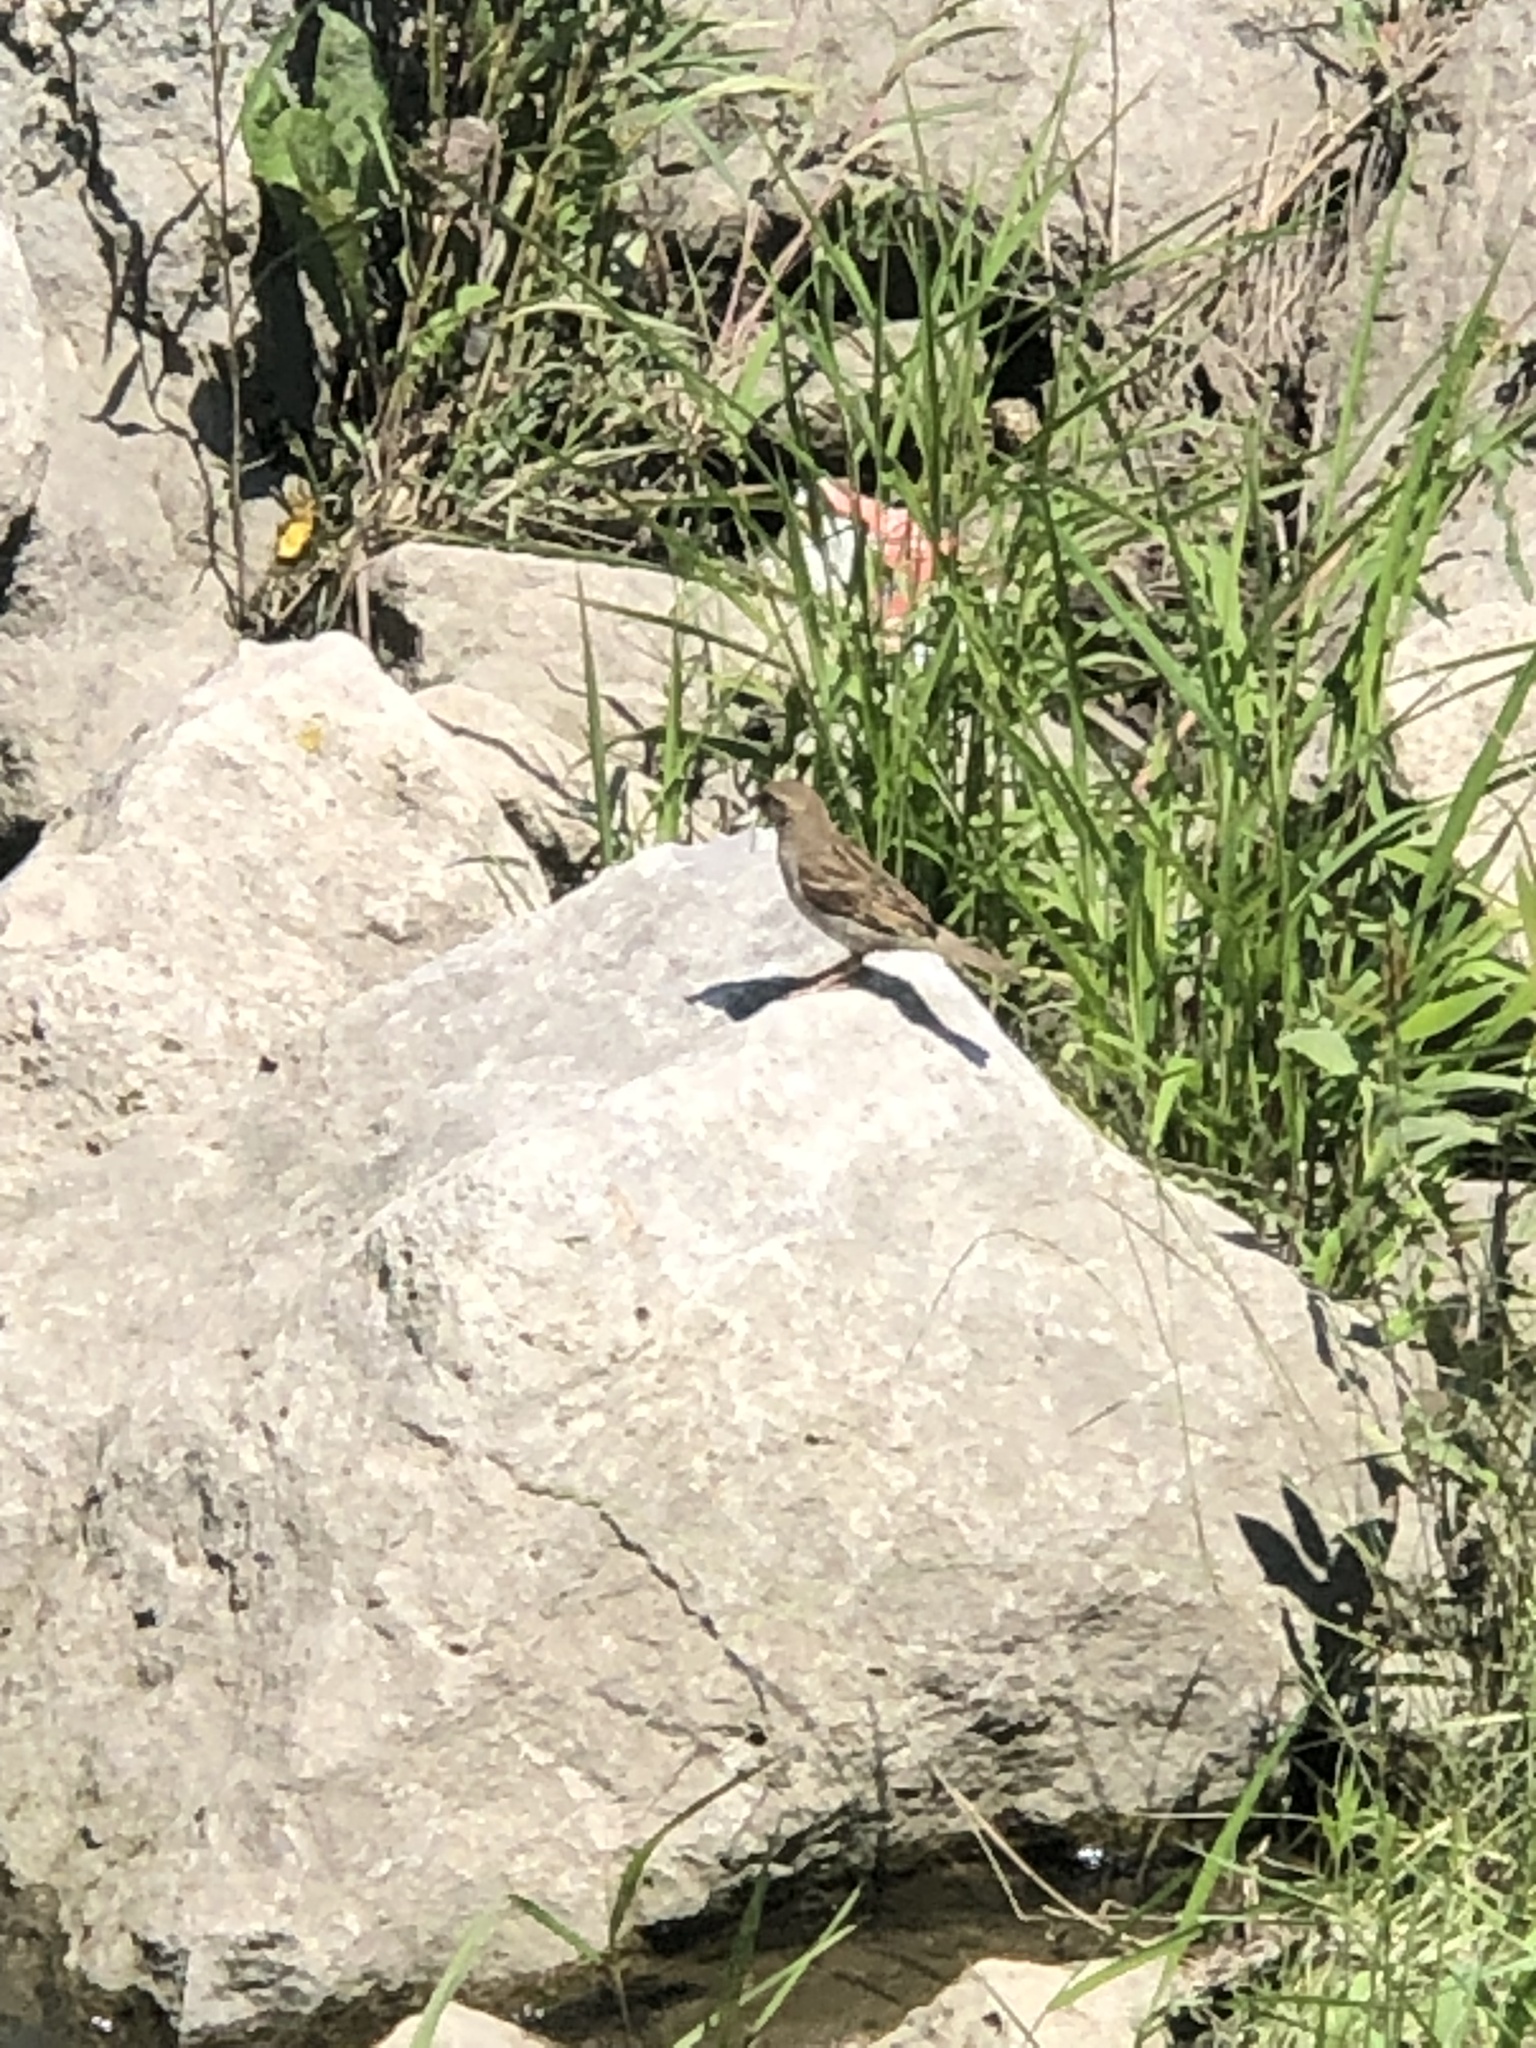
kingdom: Animalia
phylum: Chordata
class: Aves
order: Passeriformes
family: Passeridae
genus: Passer
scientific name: Passer domesticus
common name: House sparrow
